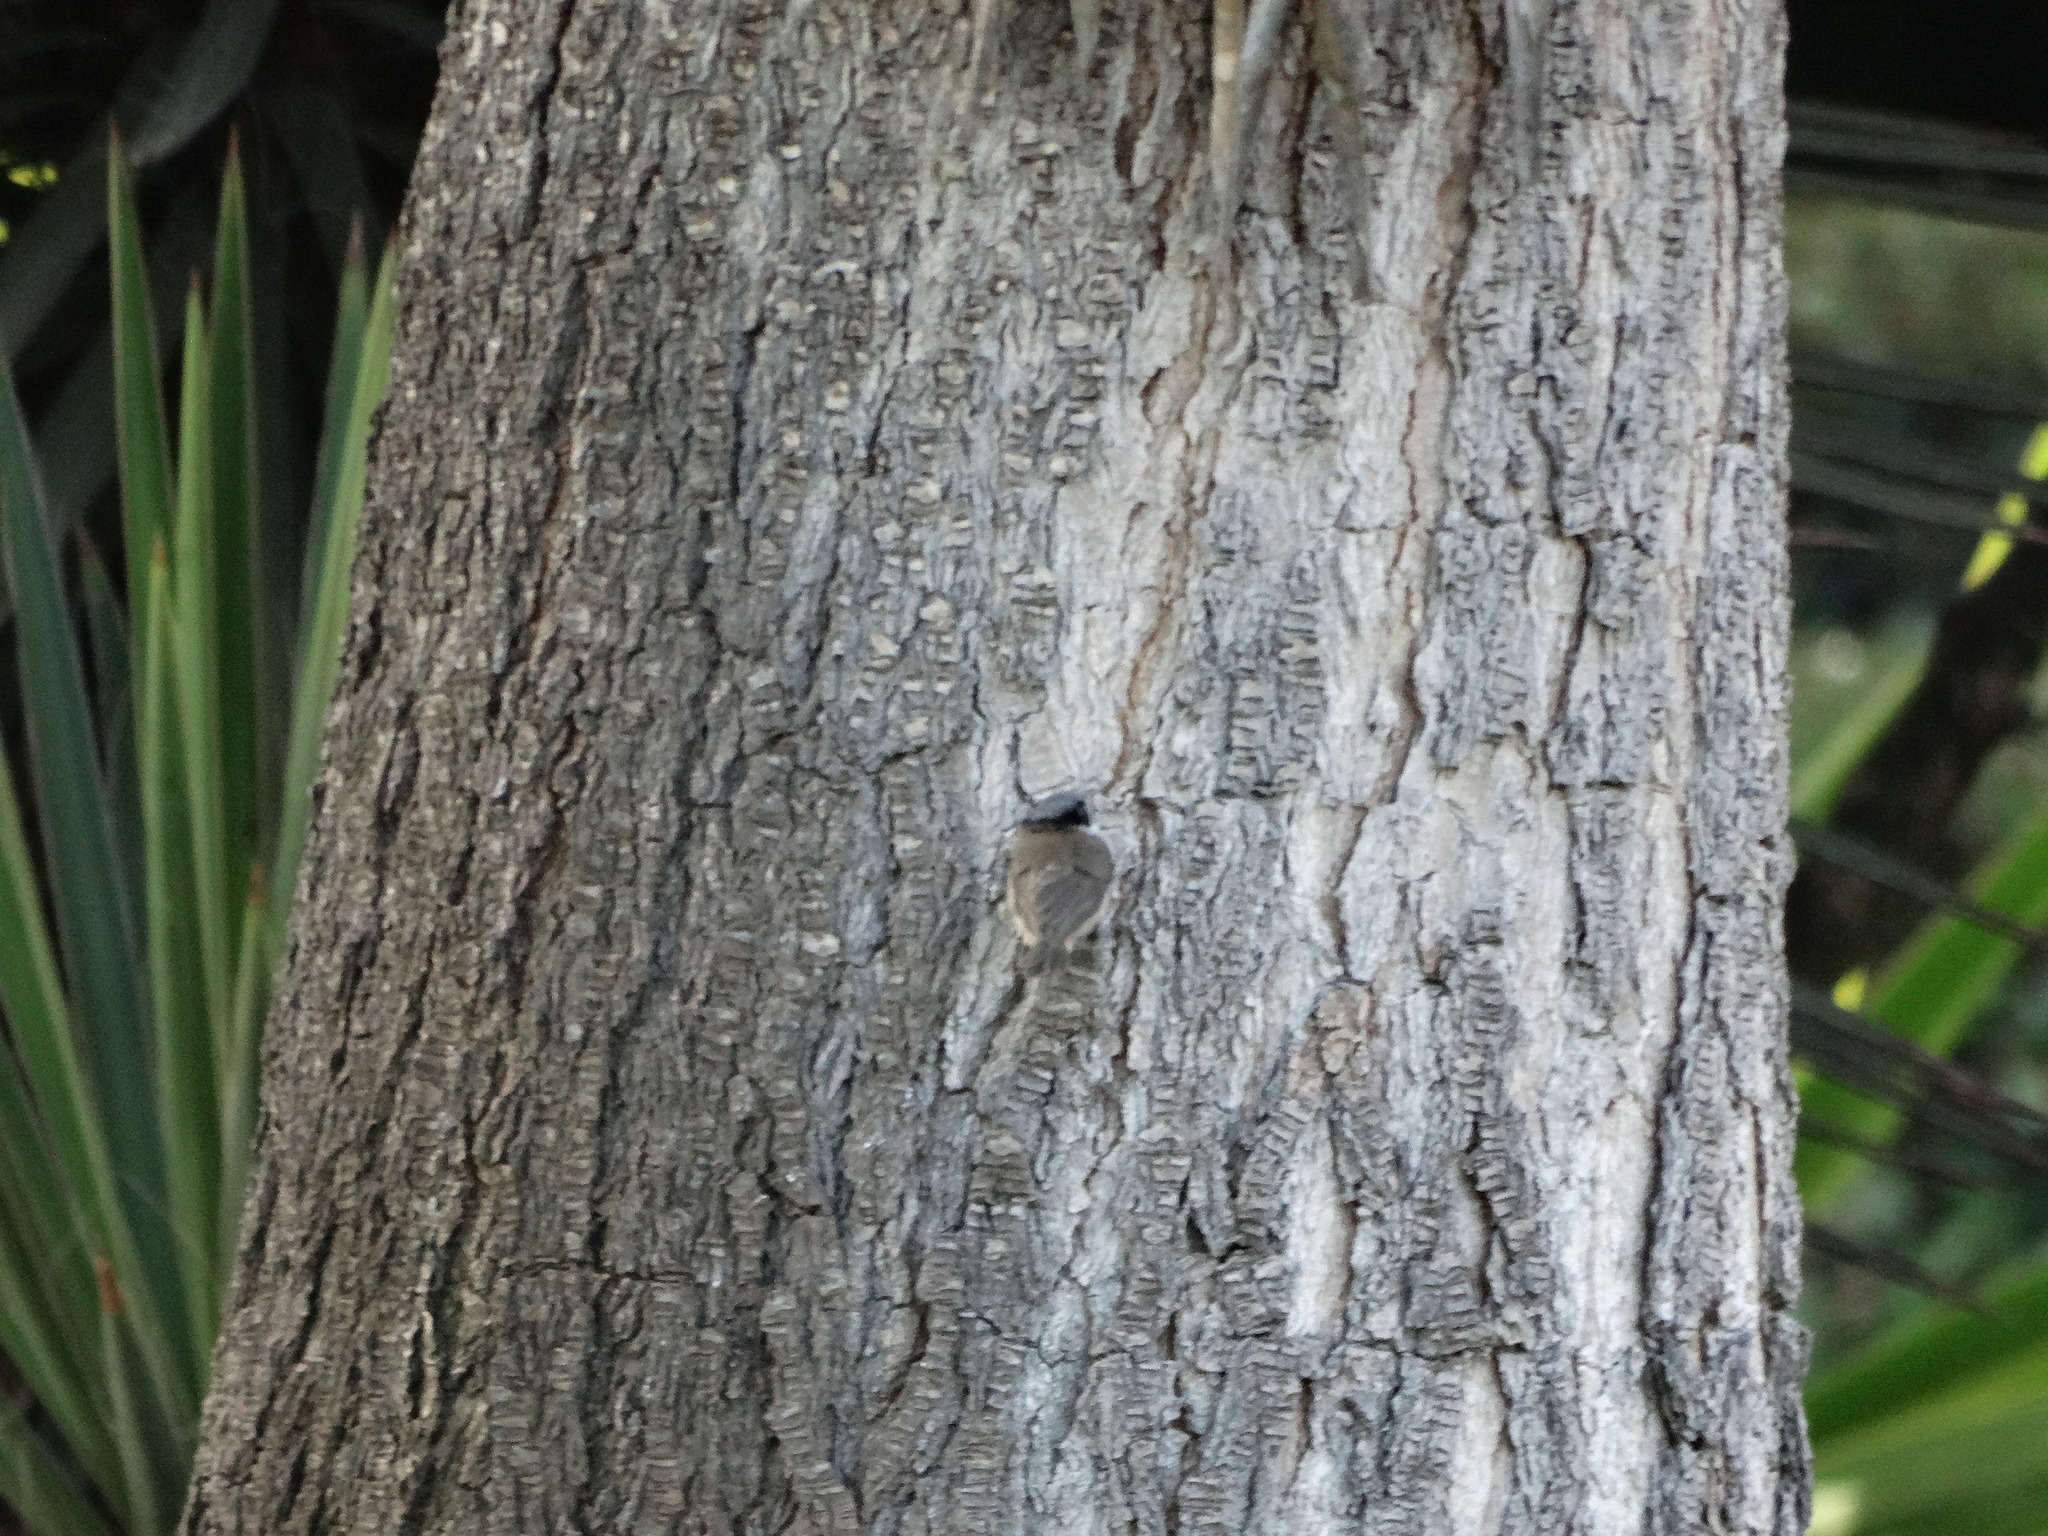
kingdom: Animalia
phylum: Chordata
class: Aves
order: Passeriformes
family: Aegithalidae
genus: Psaltriparus
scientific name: Psaltriparus minimus
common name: American bushtit
